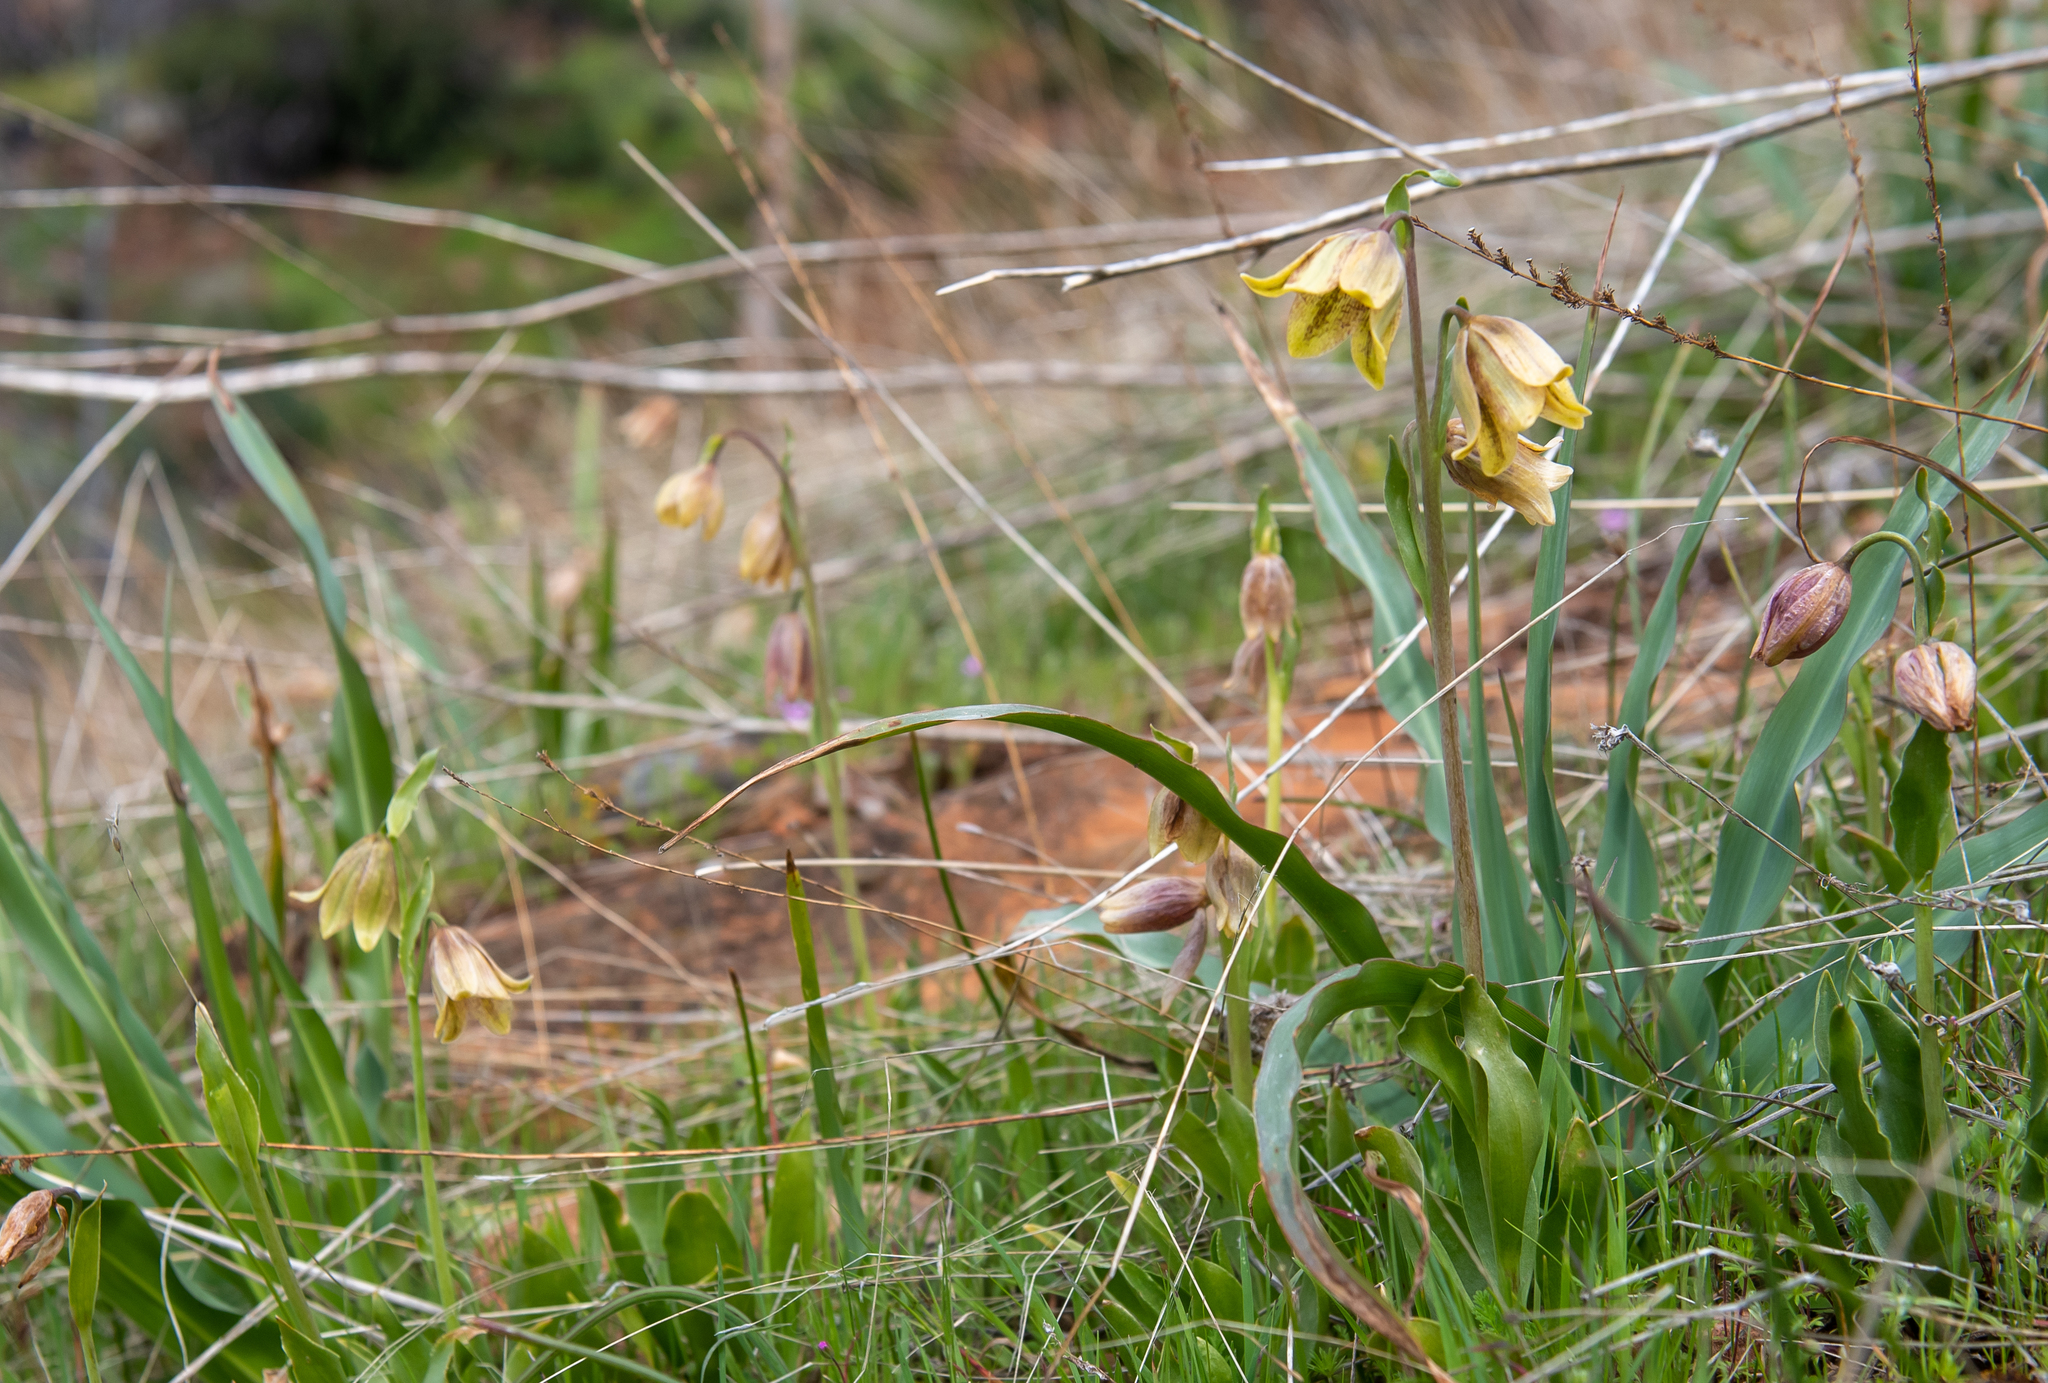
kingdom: Plantae
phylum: Tracheophyta
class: Liliopsida
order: Liliales
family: Liliaceae
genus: Fritillaria
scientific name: Fritillaria agrestis
